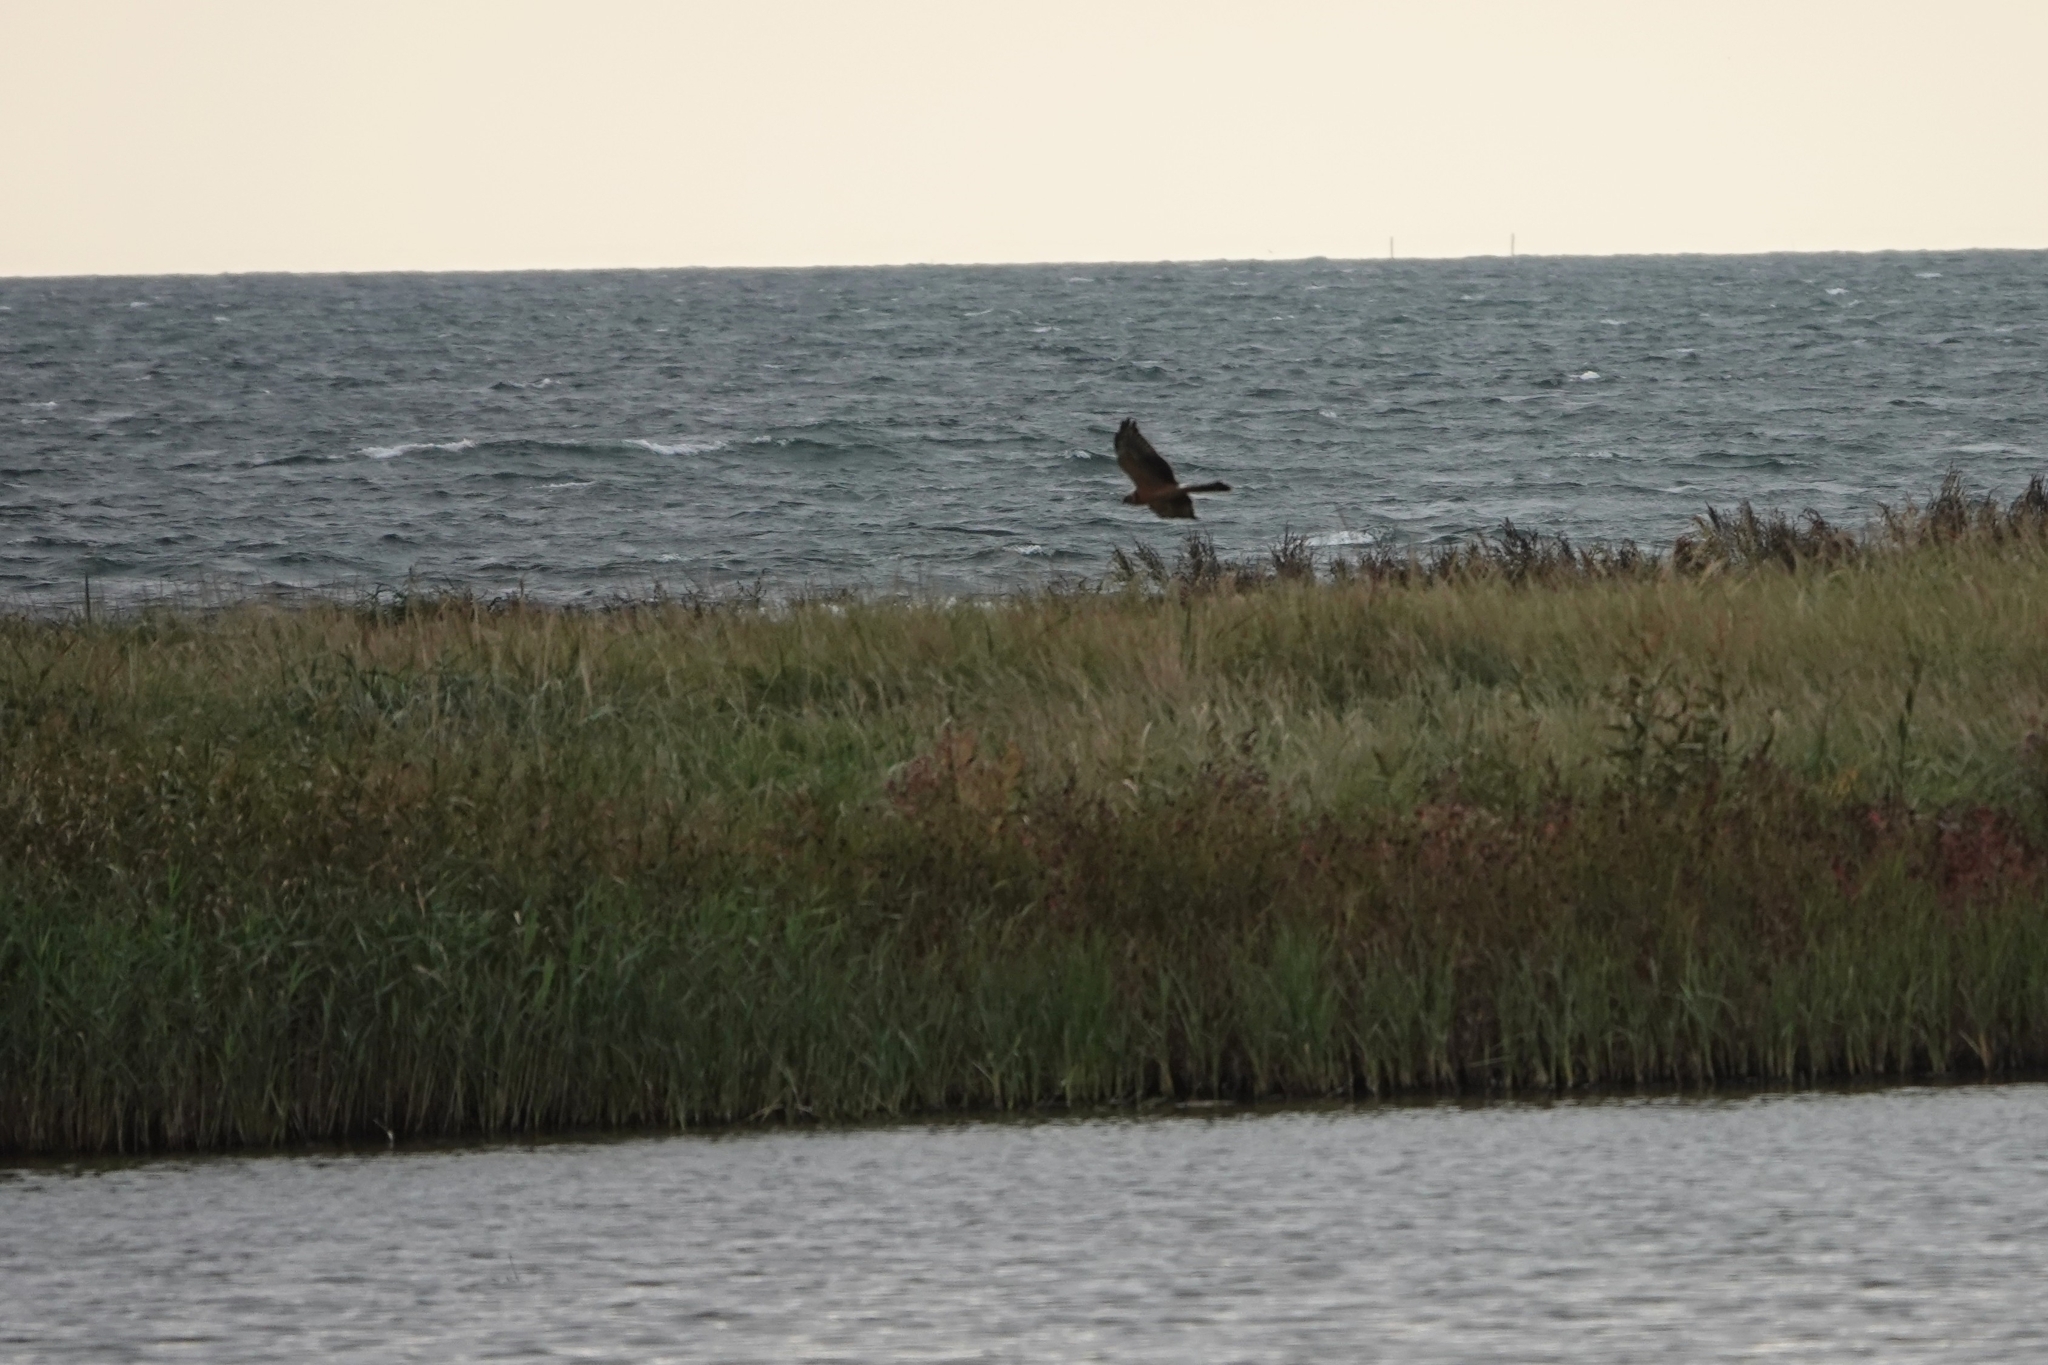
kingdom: Animalia
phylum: Chordata
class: Aves
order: Accipitriformes
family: Accipitridae
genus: Circus
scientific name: Circus macrourus
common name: Pallid harrier
